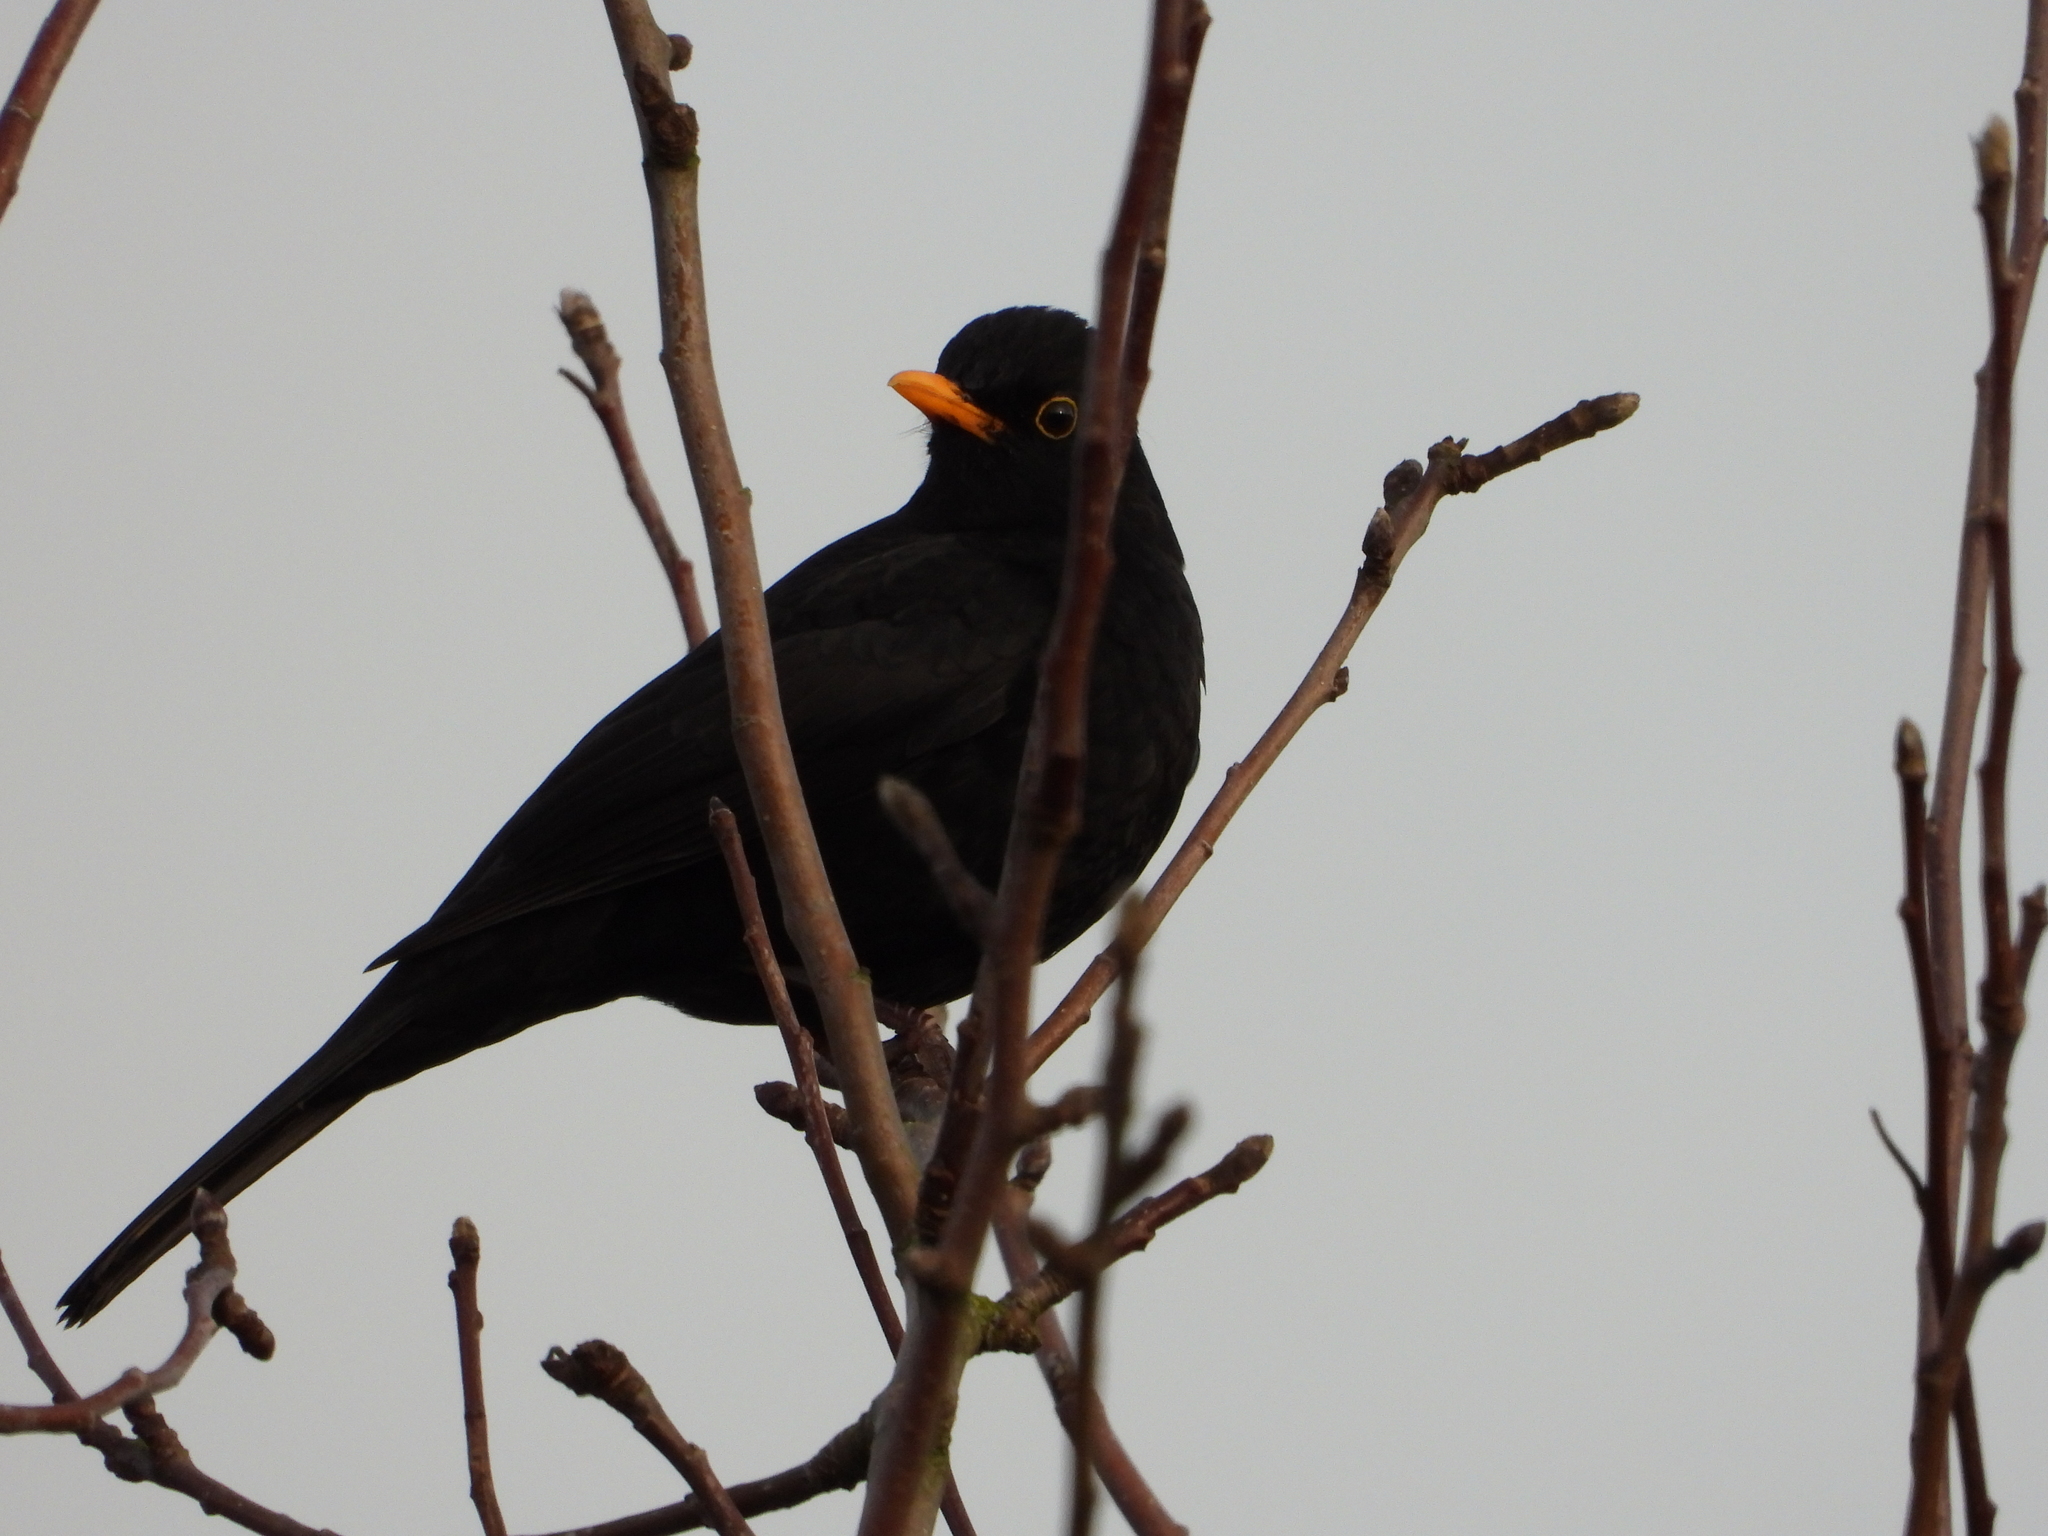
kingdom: Animalia
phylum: Chordata
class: Aves
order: Passeriformes
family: Turdidae
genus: Turdus
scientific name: Turdus merula
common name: Common blackbird
